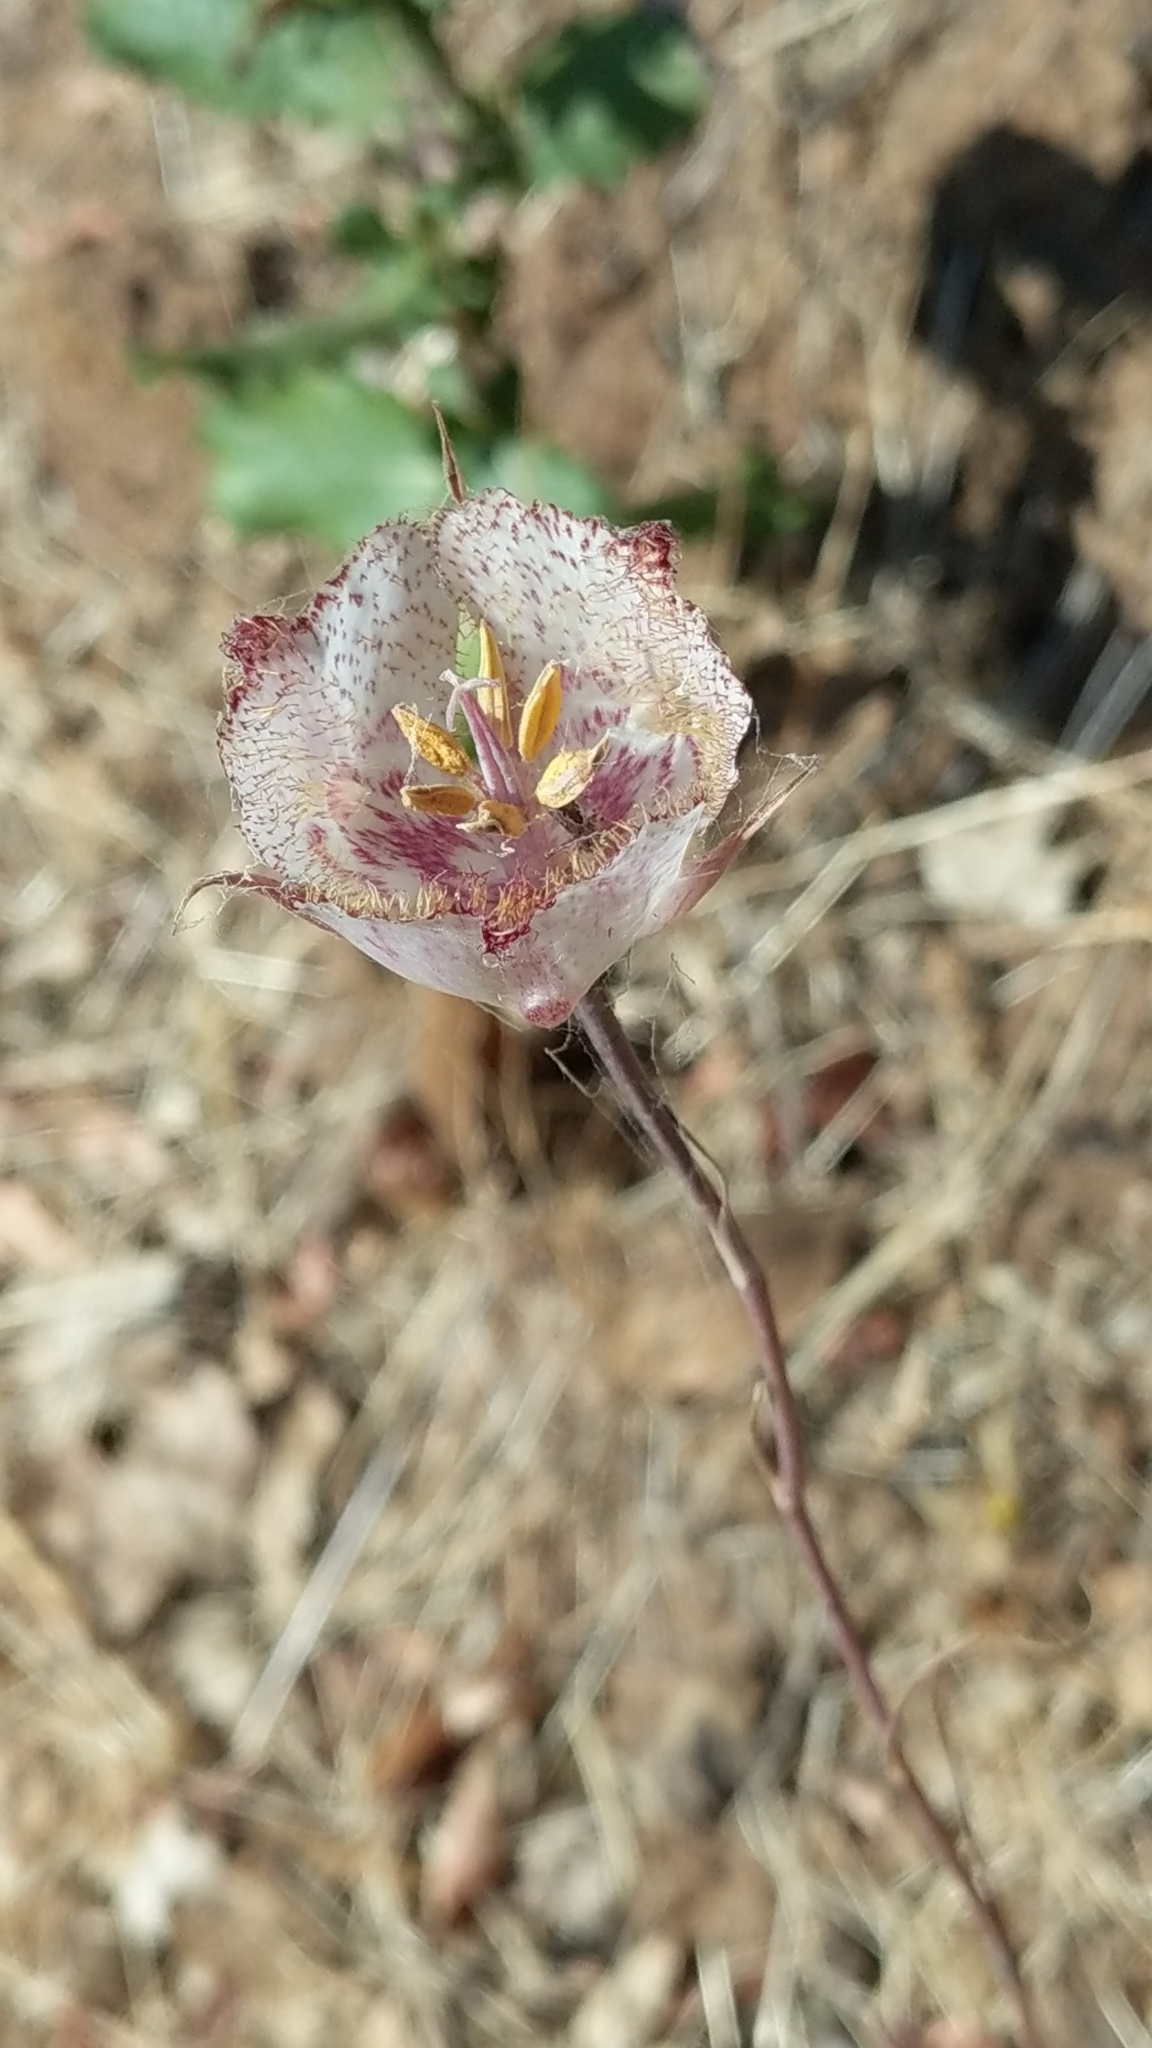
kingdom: Plantae
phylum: Tracheophyta
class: Liliopsida
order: Liliales
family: Liliaceae
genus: Calochortus
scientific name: Calochortus fimbriatus
